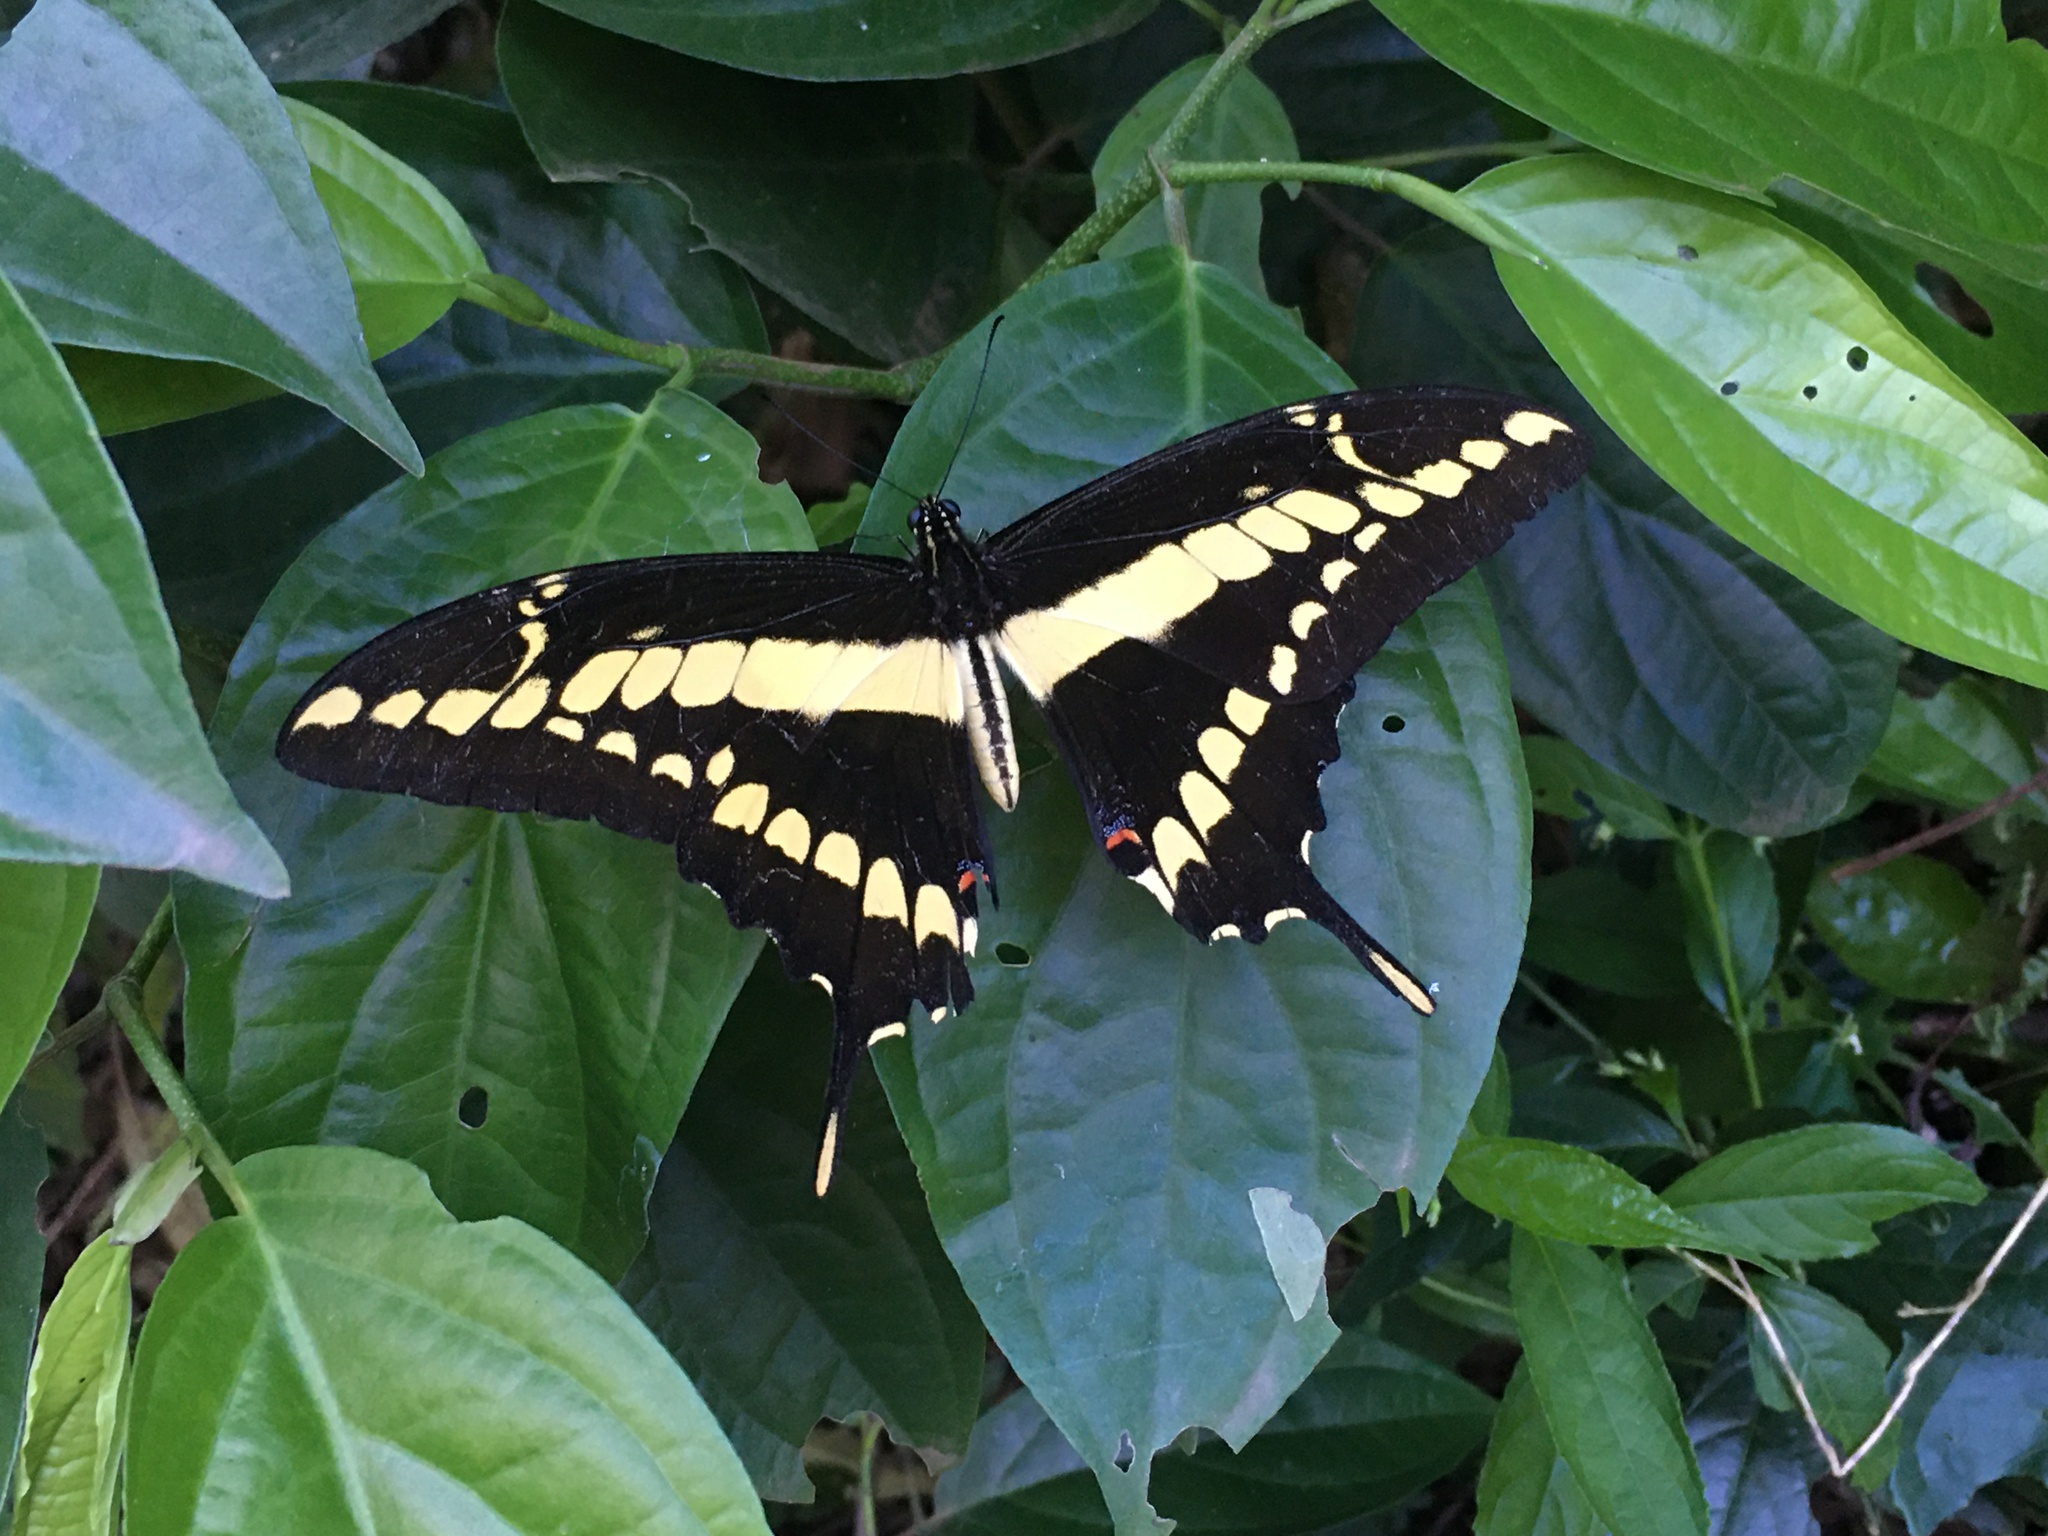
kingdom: Animalia
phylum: Arthropoda
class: Insecta
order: Lepidoptera
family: Papilionidae
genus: Papilio
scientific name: Papilio thoas
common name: King swallowtail
